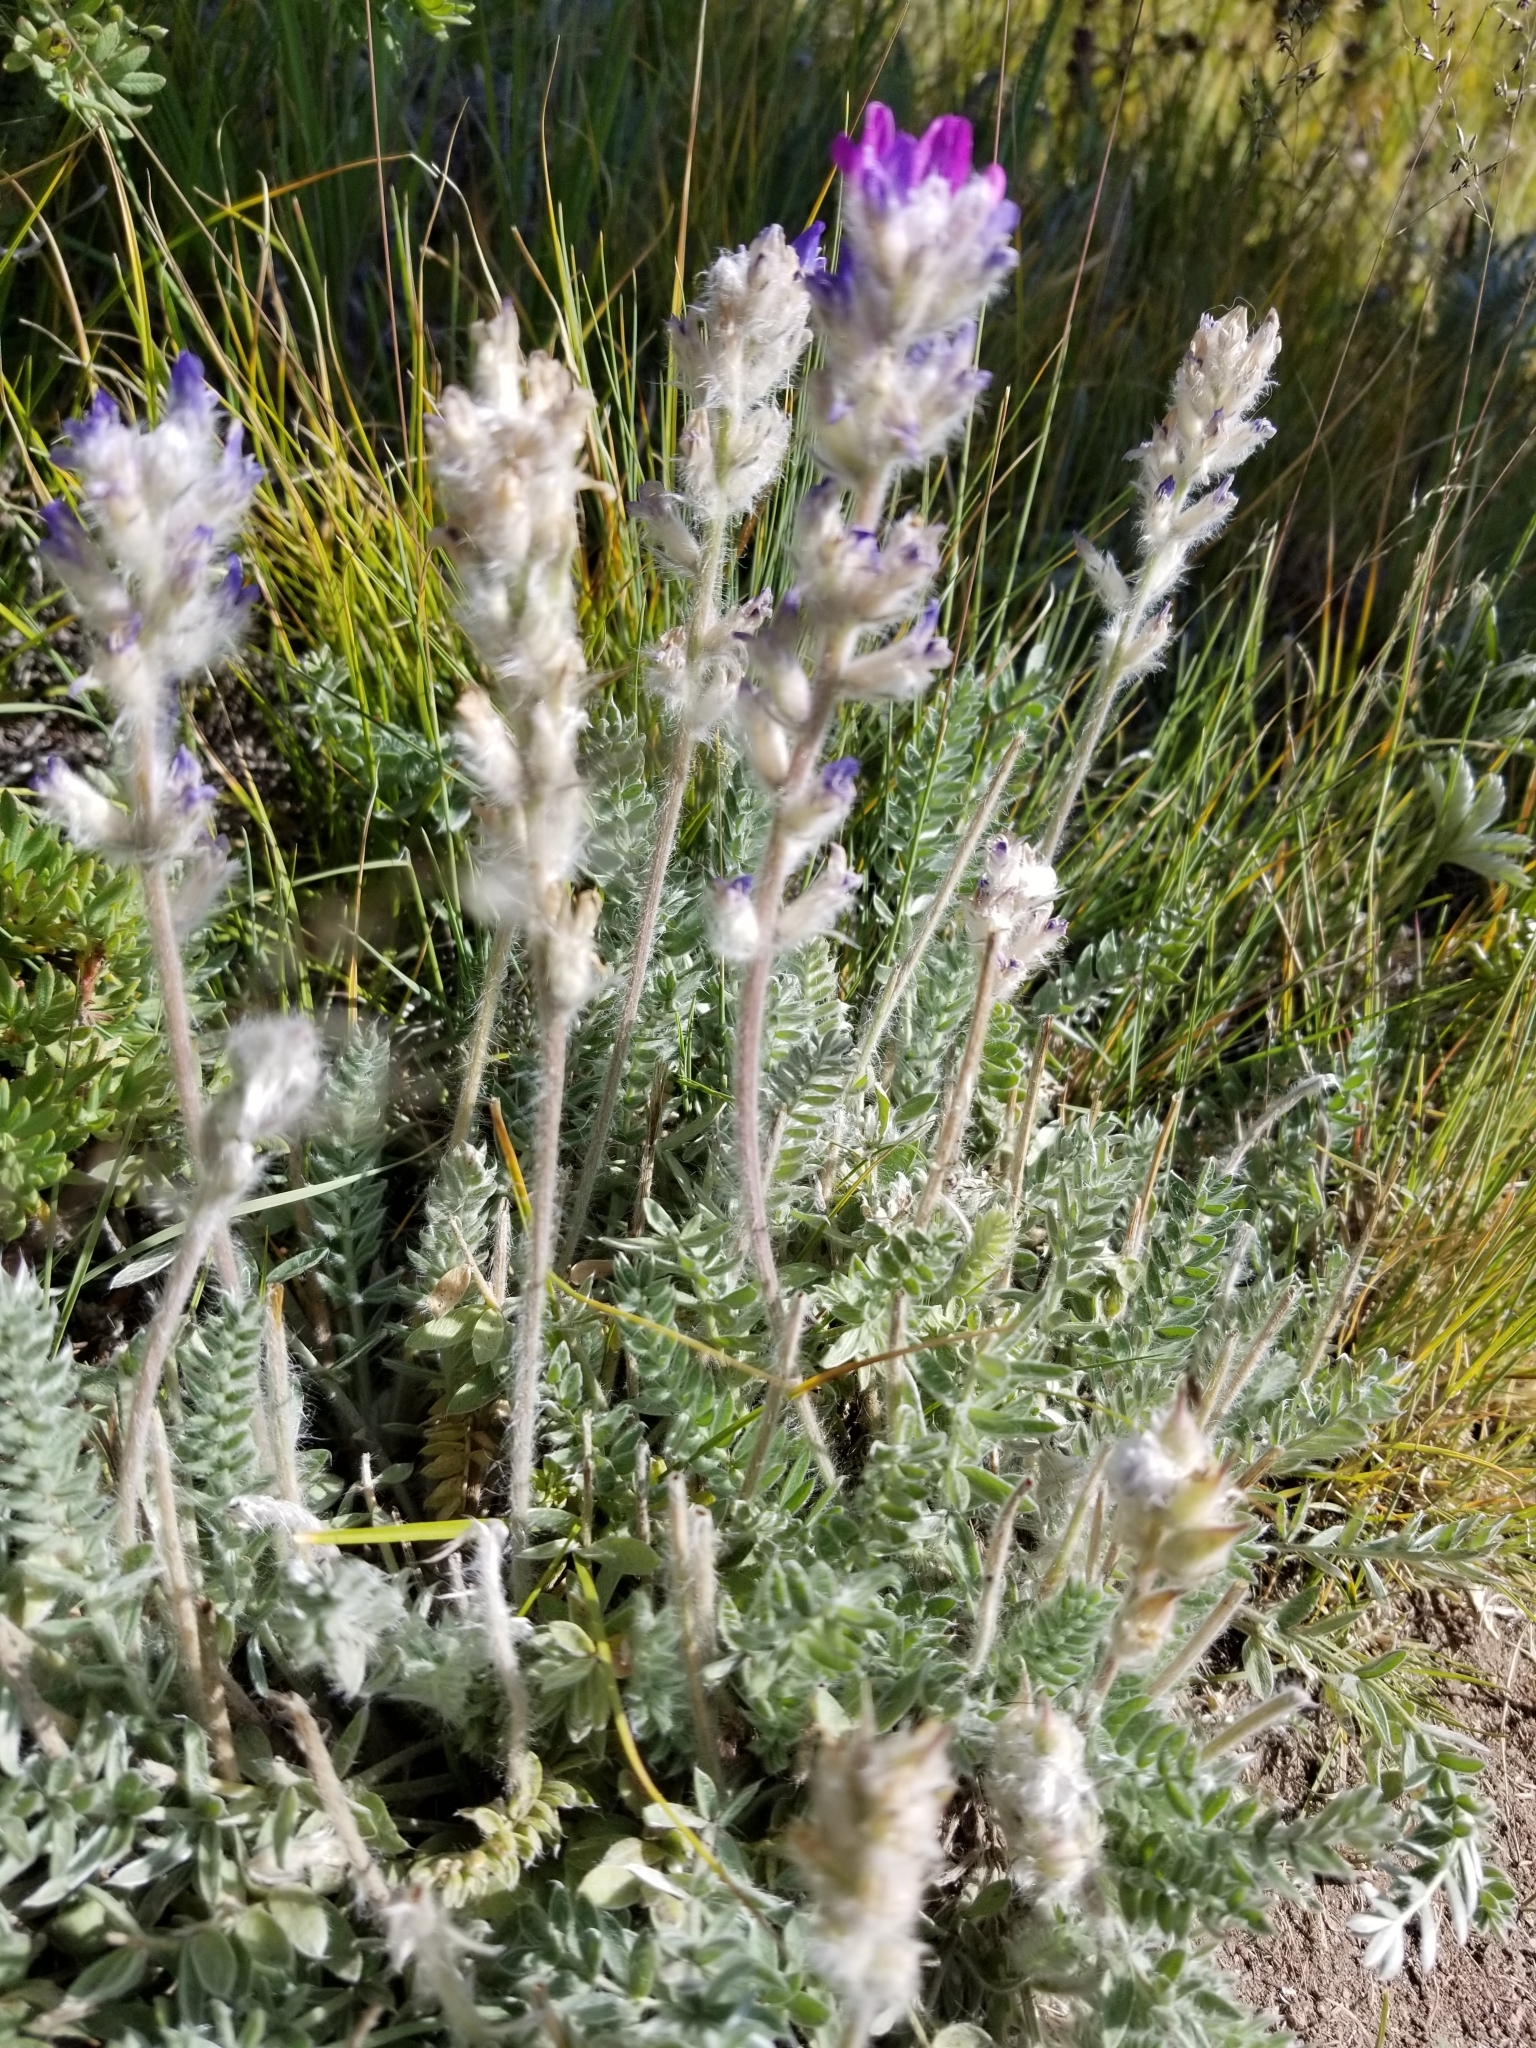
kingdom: Plantae
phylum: Tracheophyta
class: Magnoliopsida
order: Fabales
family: Fabaceae
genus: Oxytropis
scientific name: Oxytropis splendens
